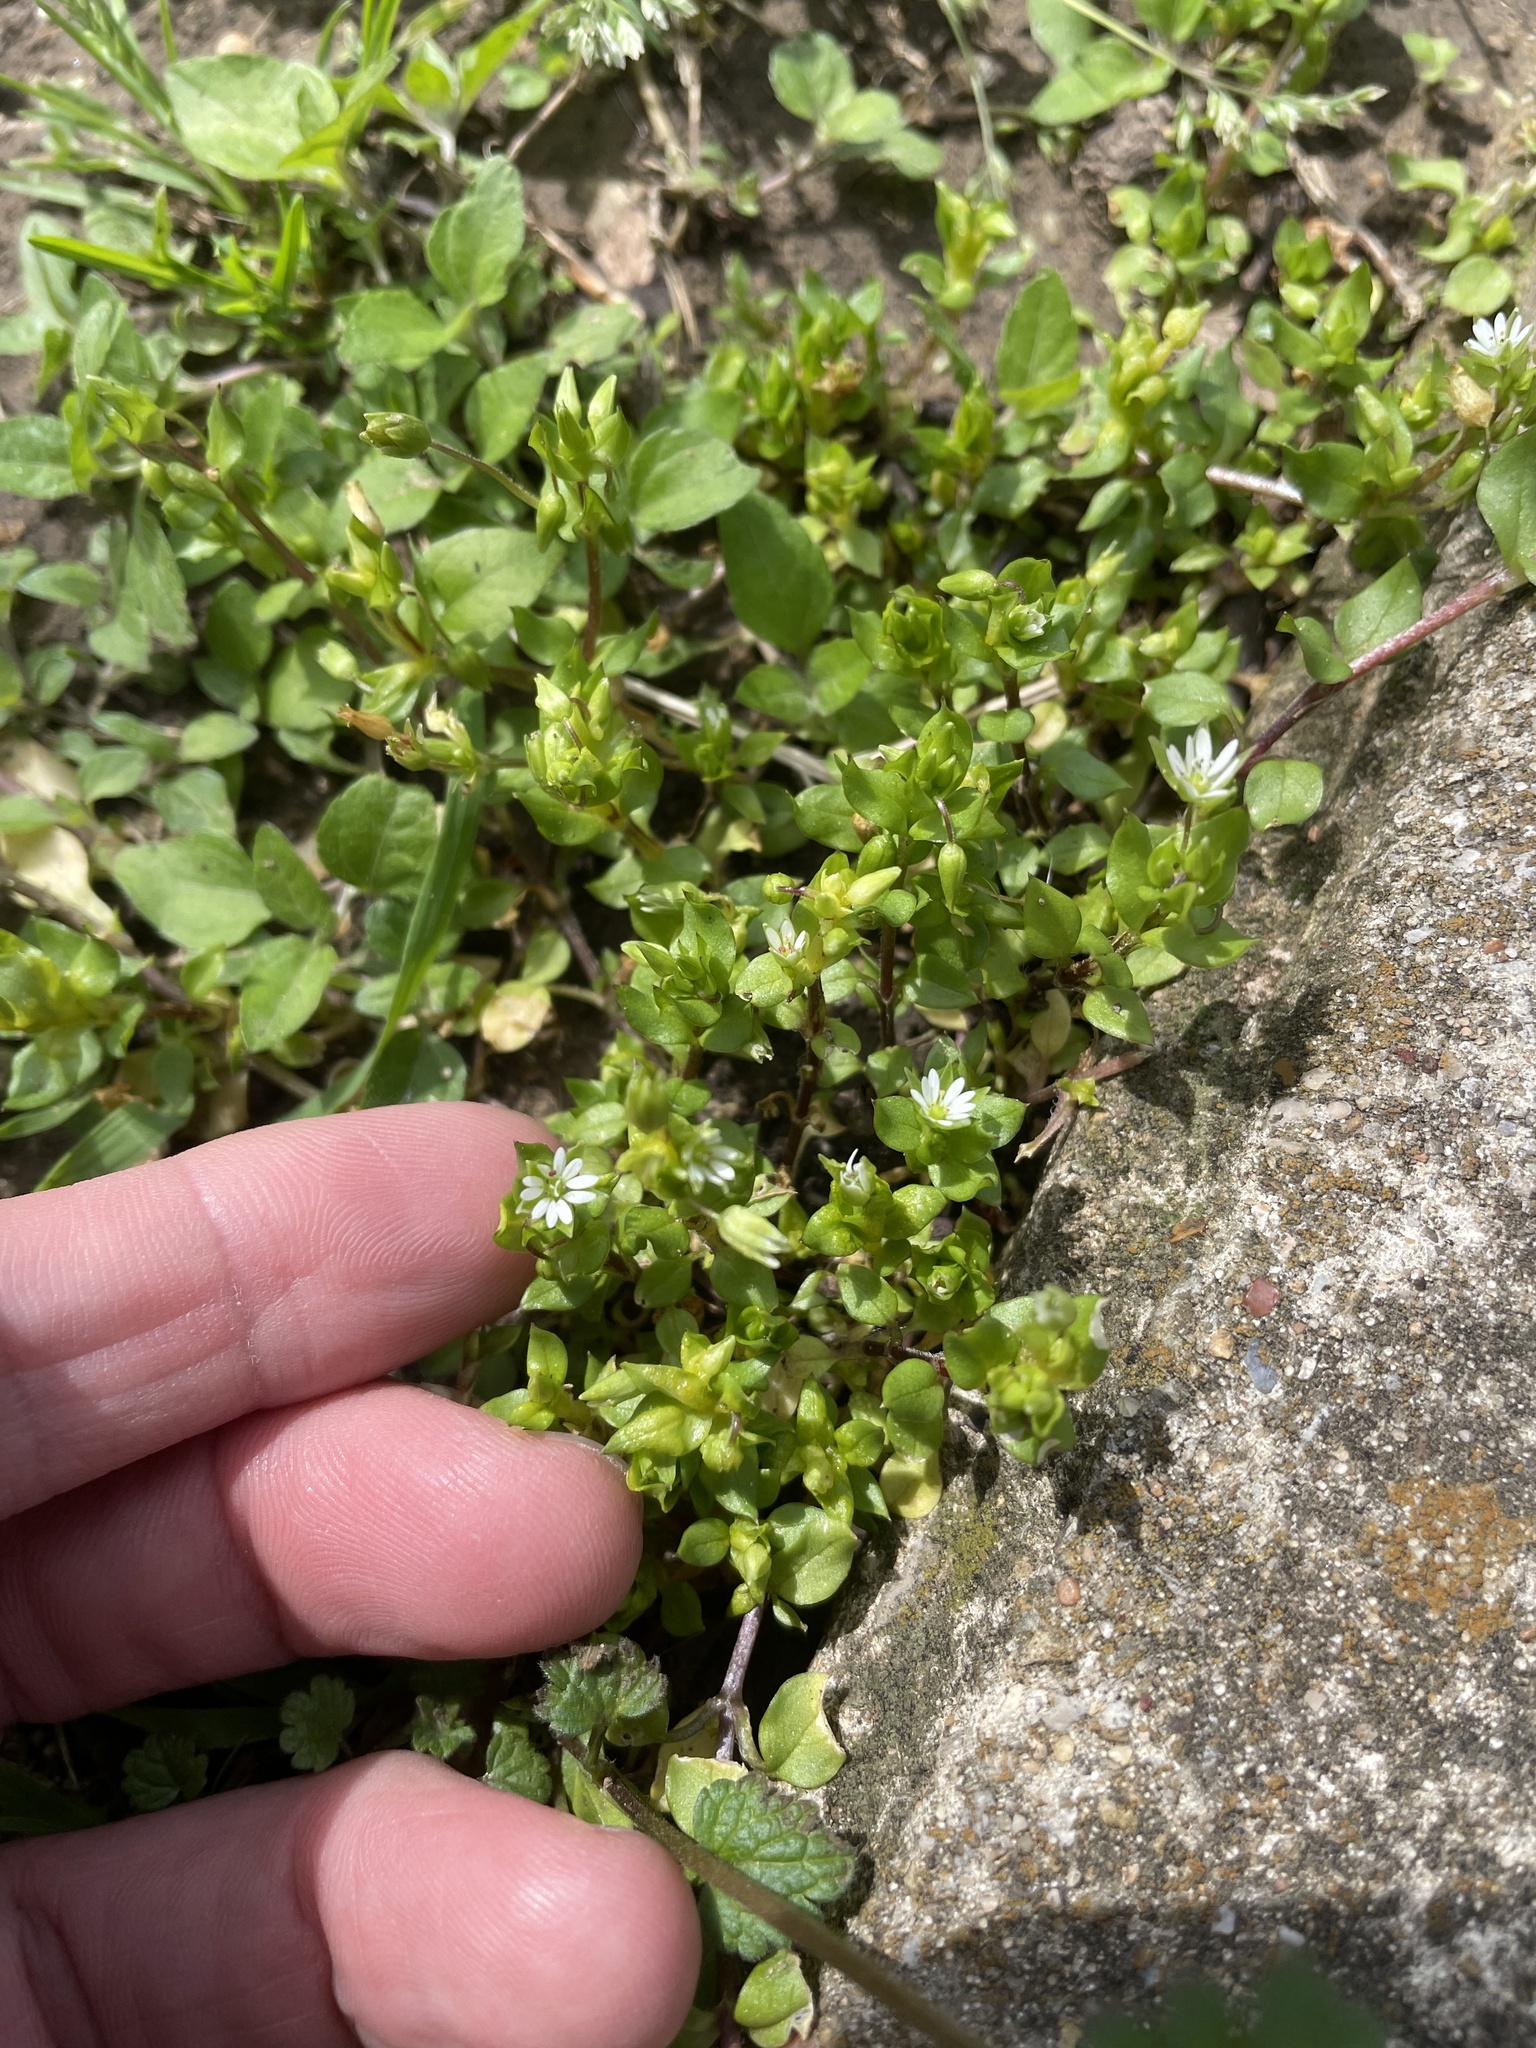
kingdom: Plantae
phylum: Tracheophyta
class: Magnoliopsida
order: Caryophyllales
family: Caryophyllaceae
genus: Stellaria
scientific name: Stellaria media
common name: Common chickweed
